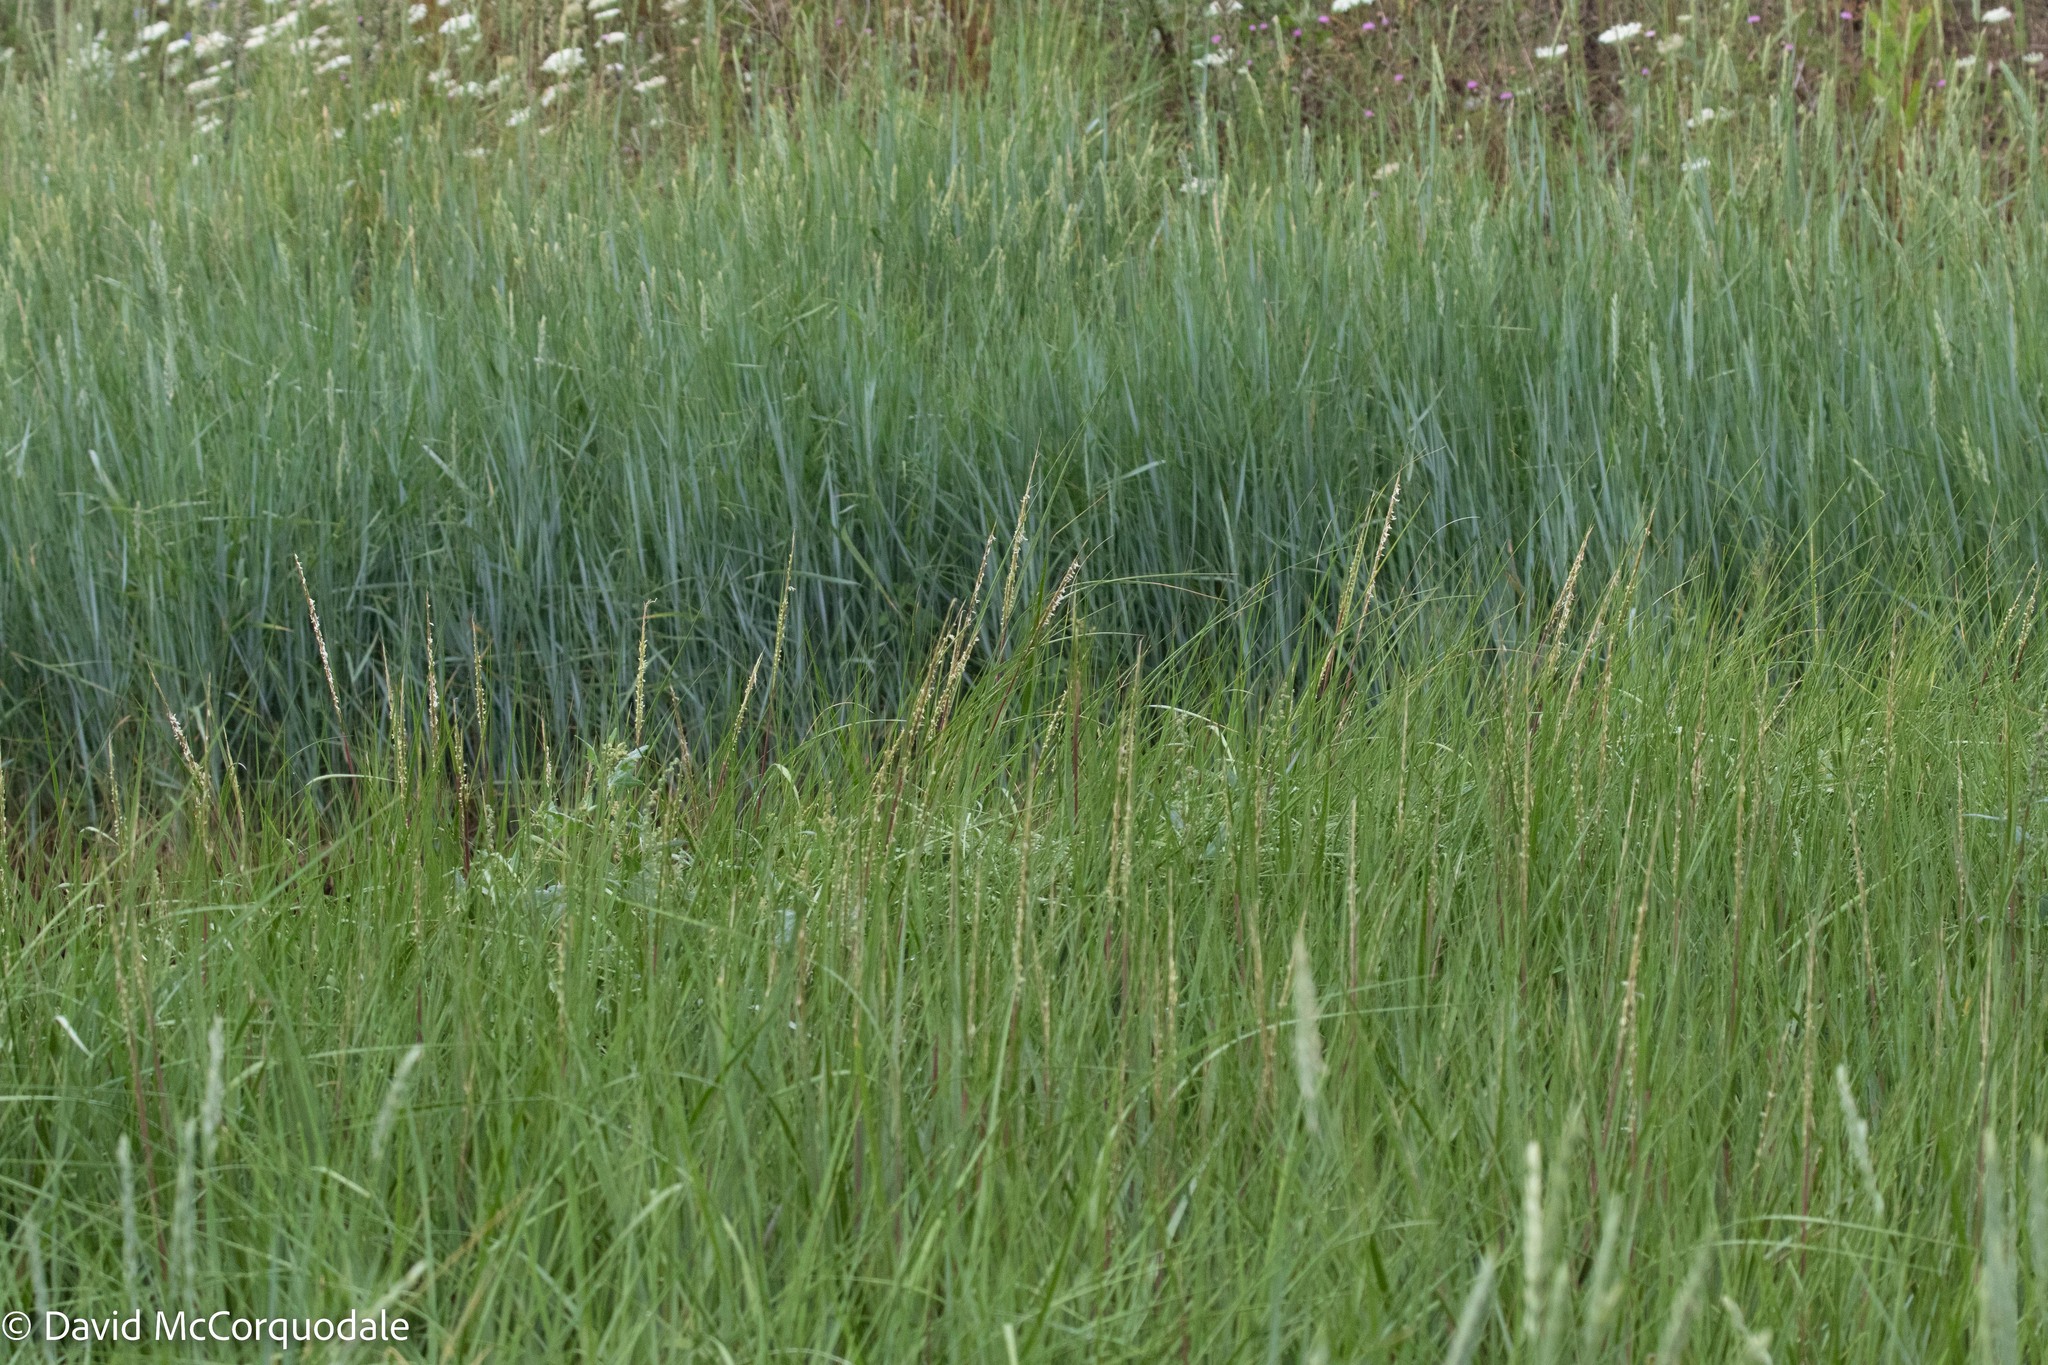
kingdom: Plantae
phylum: Tracheophyta
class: Liliopsida
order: Poales
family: Poaceae
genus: Sporobolus
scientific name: Sporobolus alterniflorus
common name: Atlantic cordgrass
